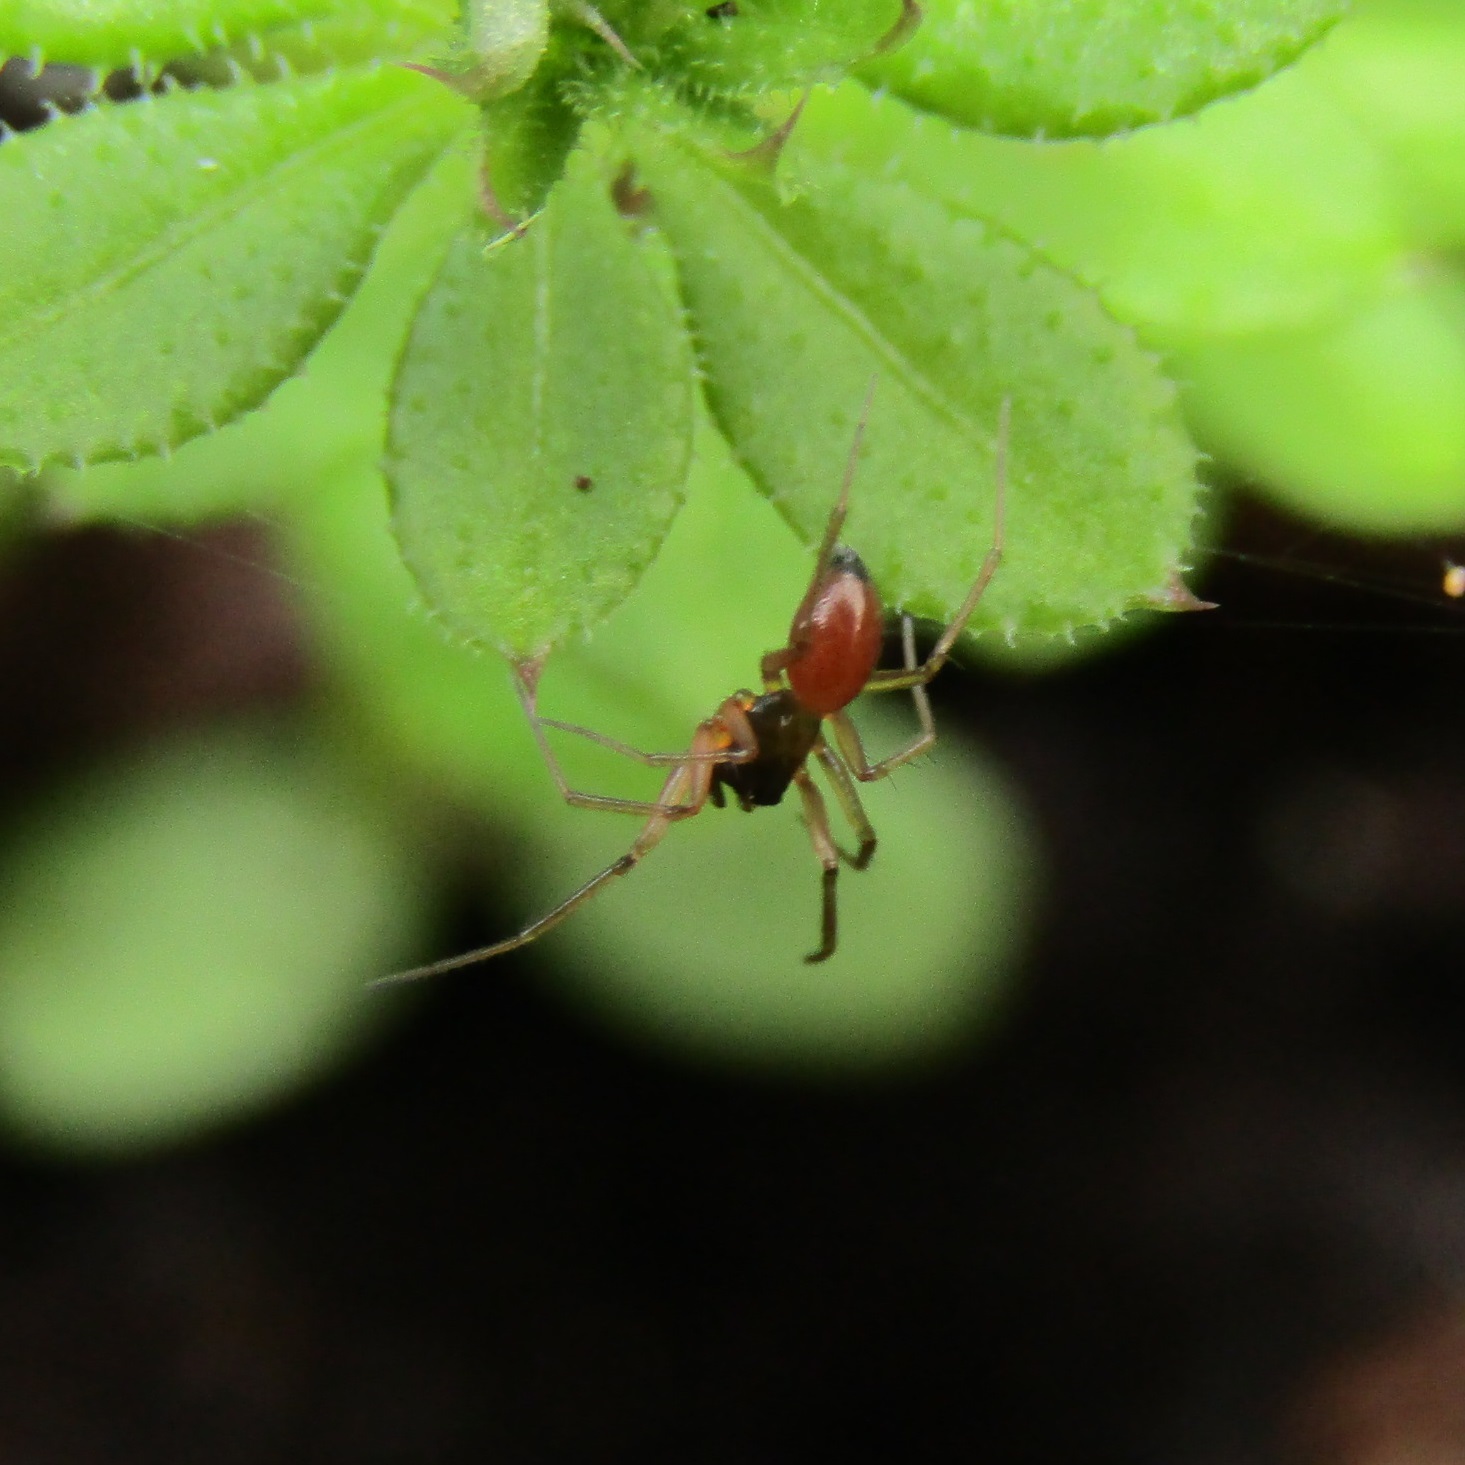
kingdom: Animalia
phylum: Arthropoda
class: Arachnida
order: Araneae
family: Linyphiidae
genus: Ostearius
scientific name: Ostearius melanopygius
